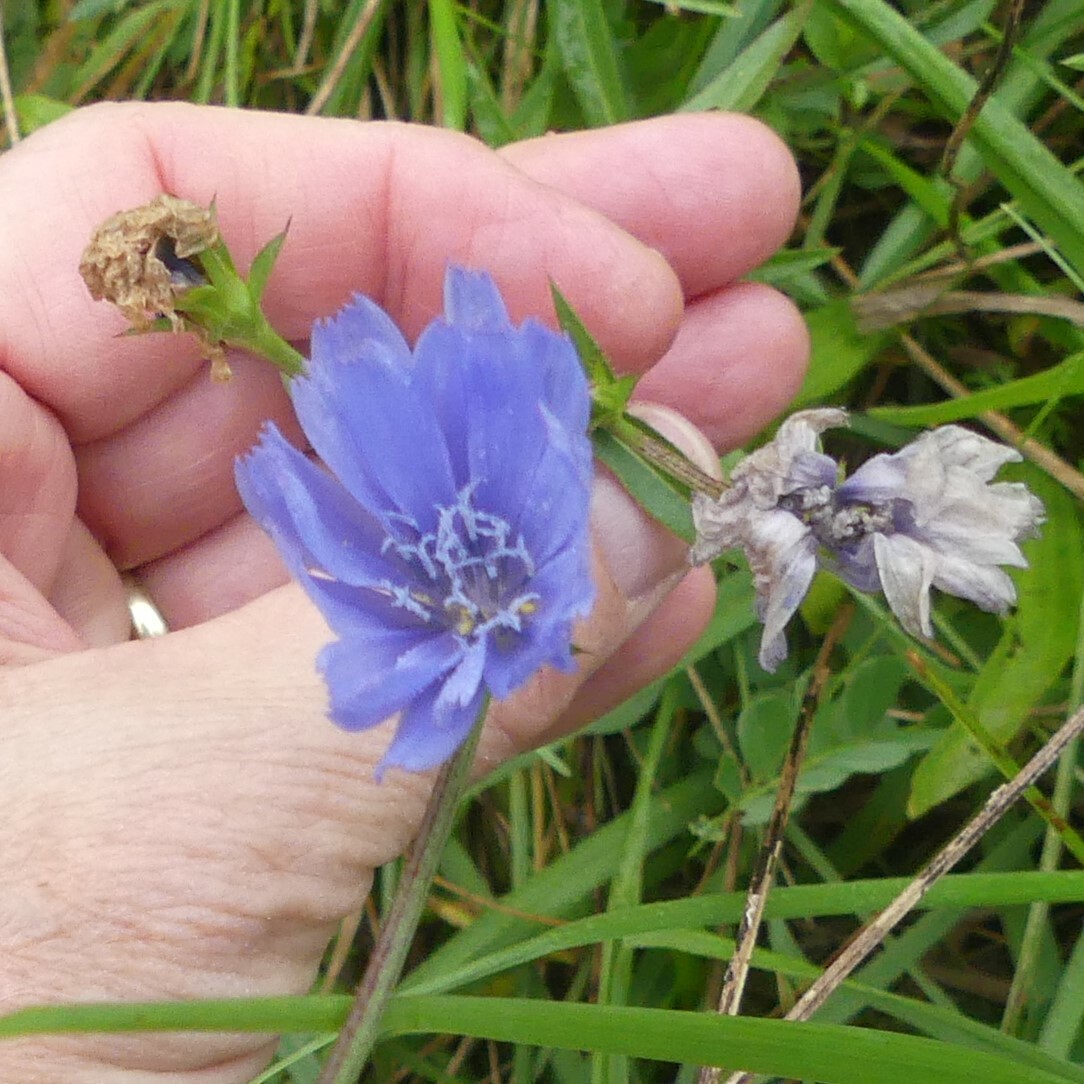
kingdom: Plantae
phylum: Tracheophyta
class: Magnoliopsida
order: Asterales
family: Asteraceae
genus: Cichorium
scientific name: Cichorium intybus
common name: Chicory
